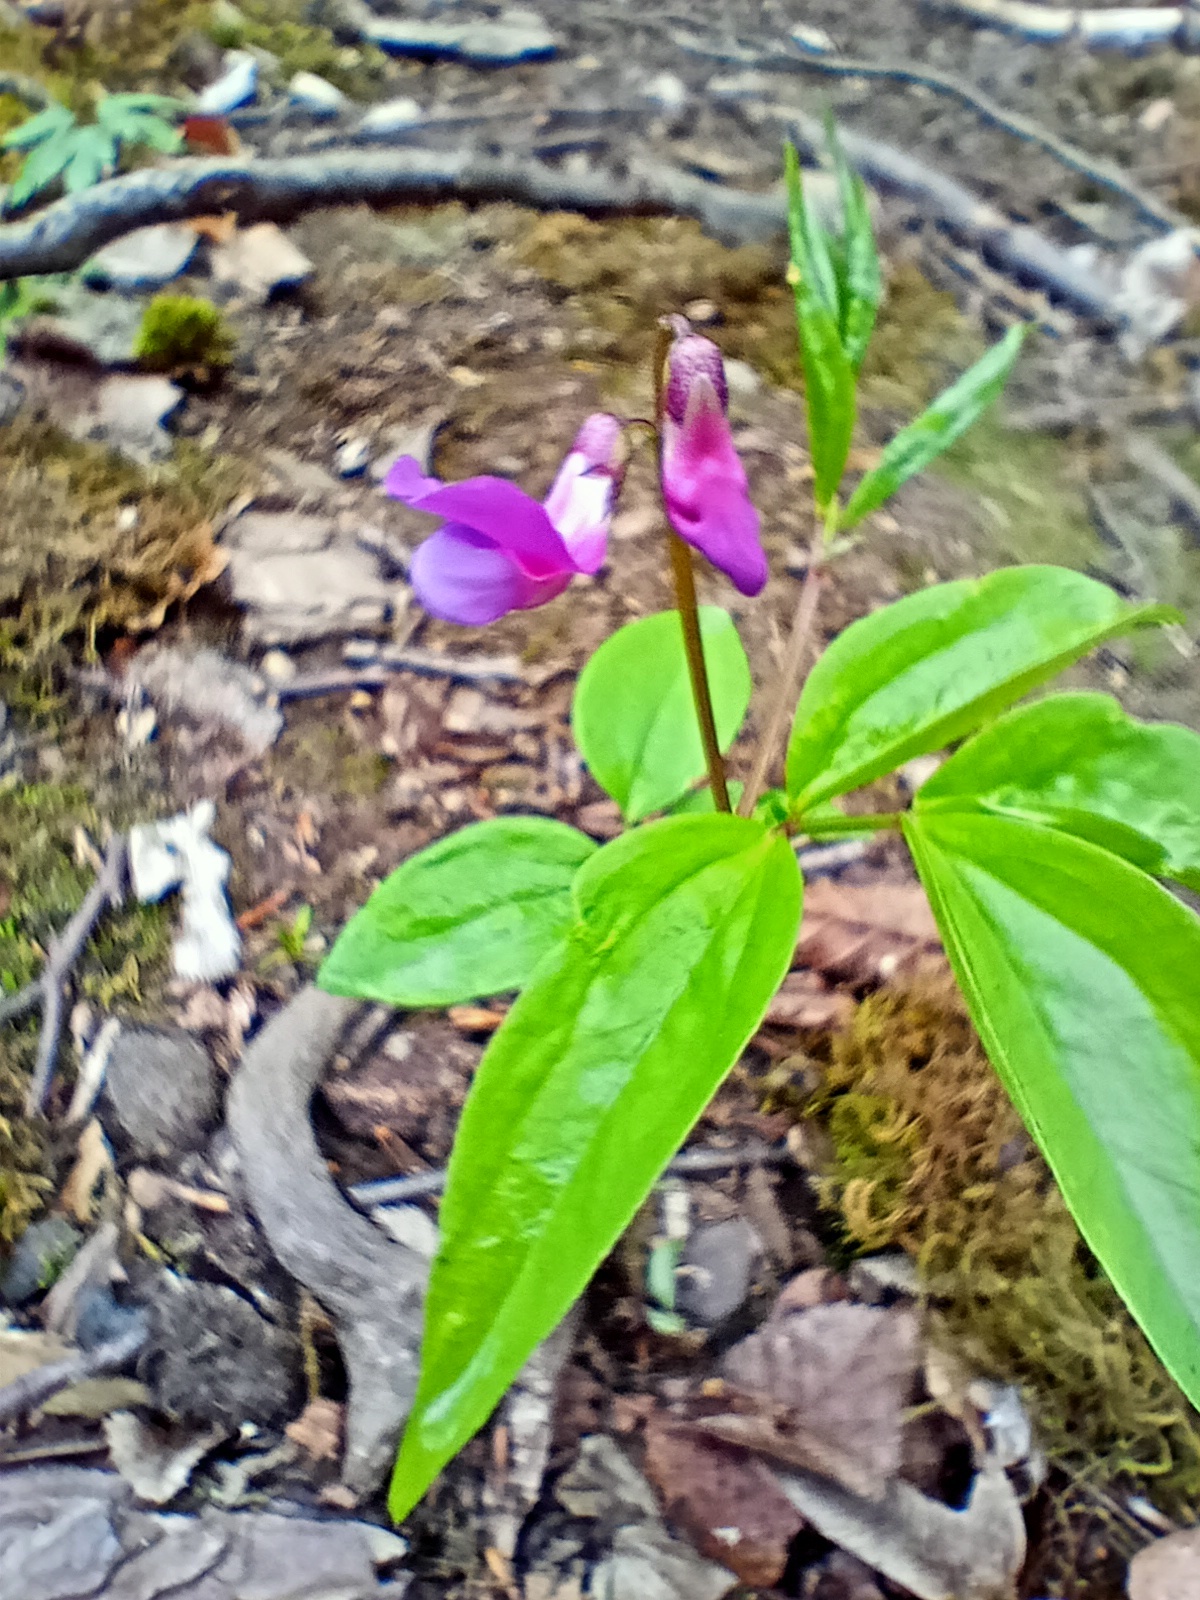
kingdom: Plantae
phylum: Tracheophyta
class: Magnoliopsida
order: Fabales
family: Fabaceae
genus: Lathyrus
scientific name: Lathyrus vernus
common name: Spring pea
